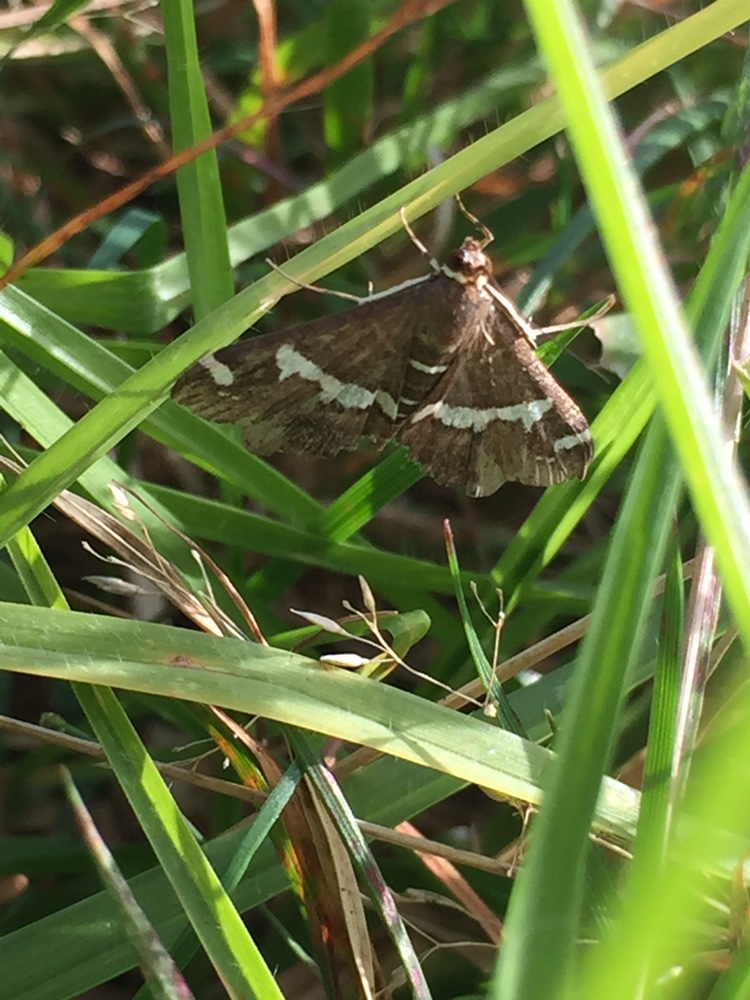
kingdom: Animalia
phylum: Arthropoda
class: Insecta
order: Lepidoptera
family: Crambidae
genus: Spoladea
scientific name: Spoladea recurvalis
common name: Beet webworm moth
